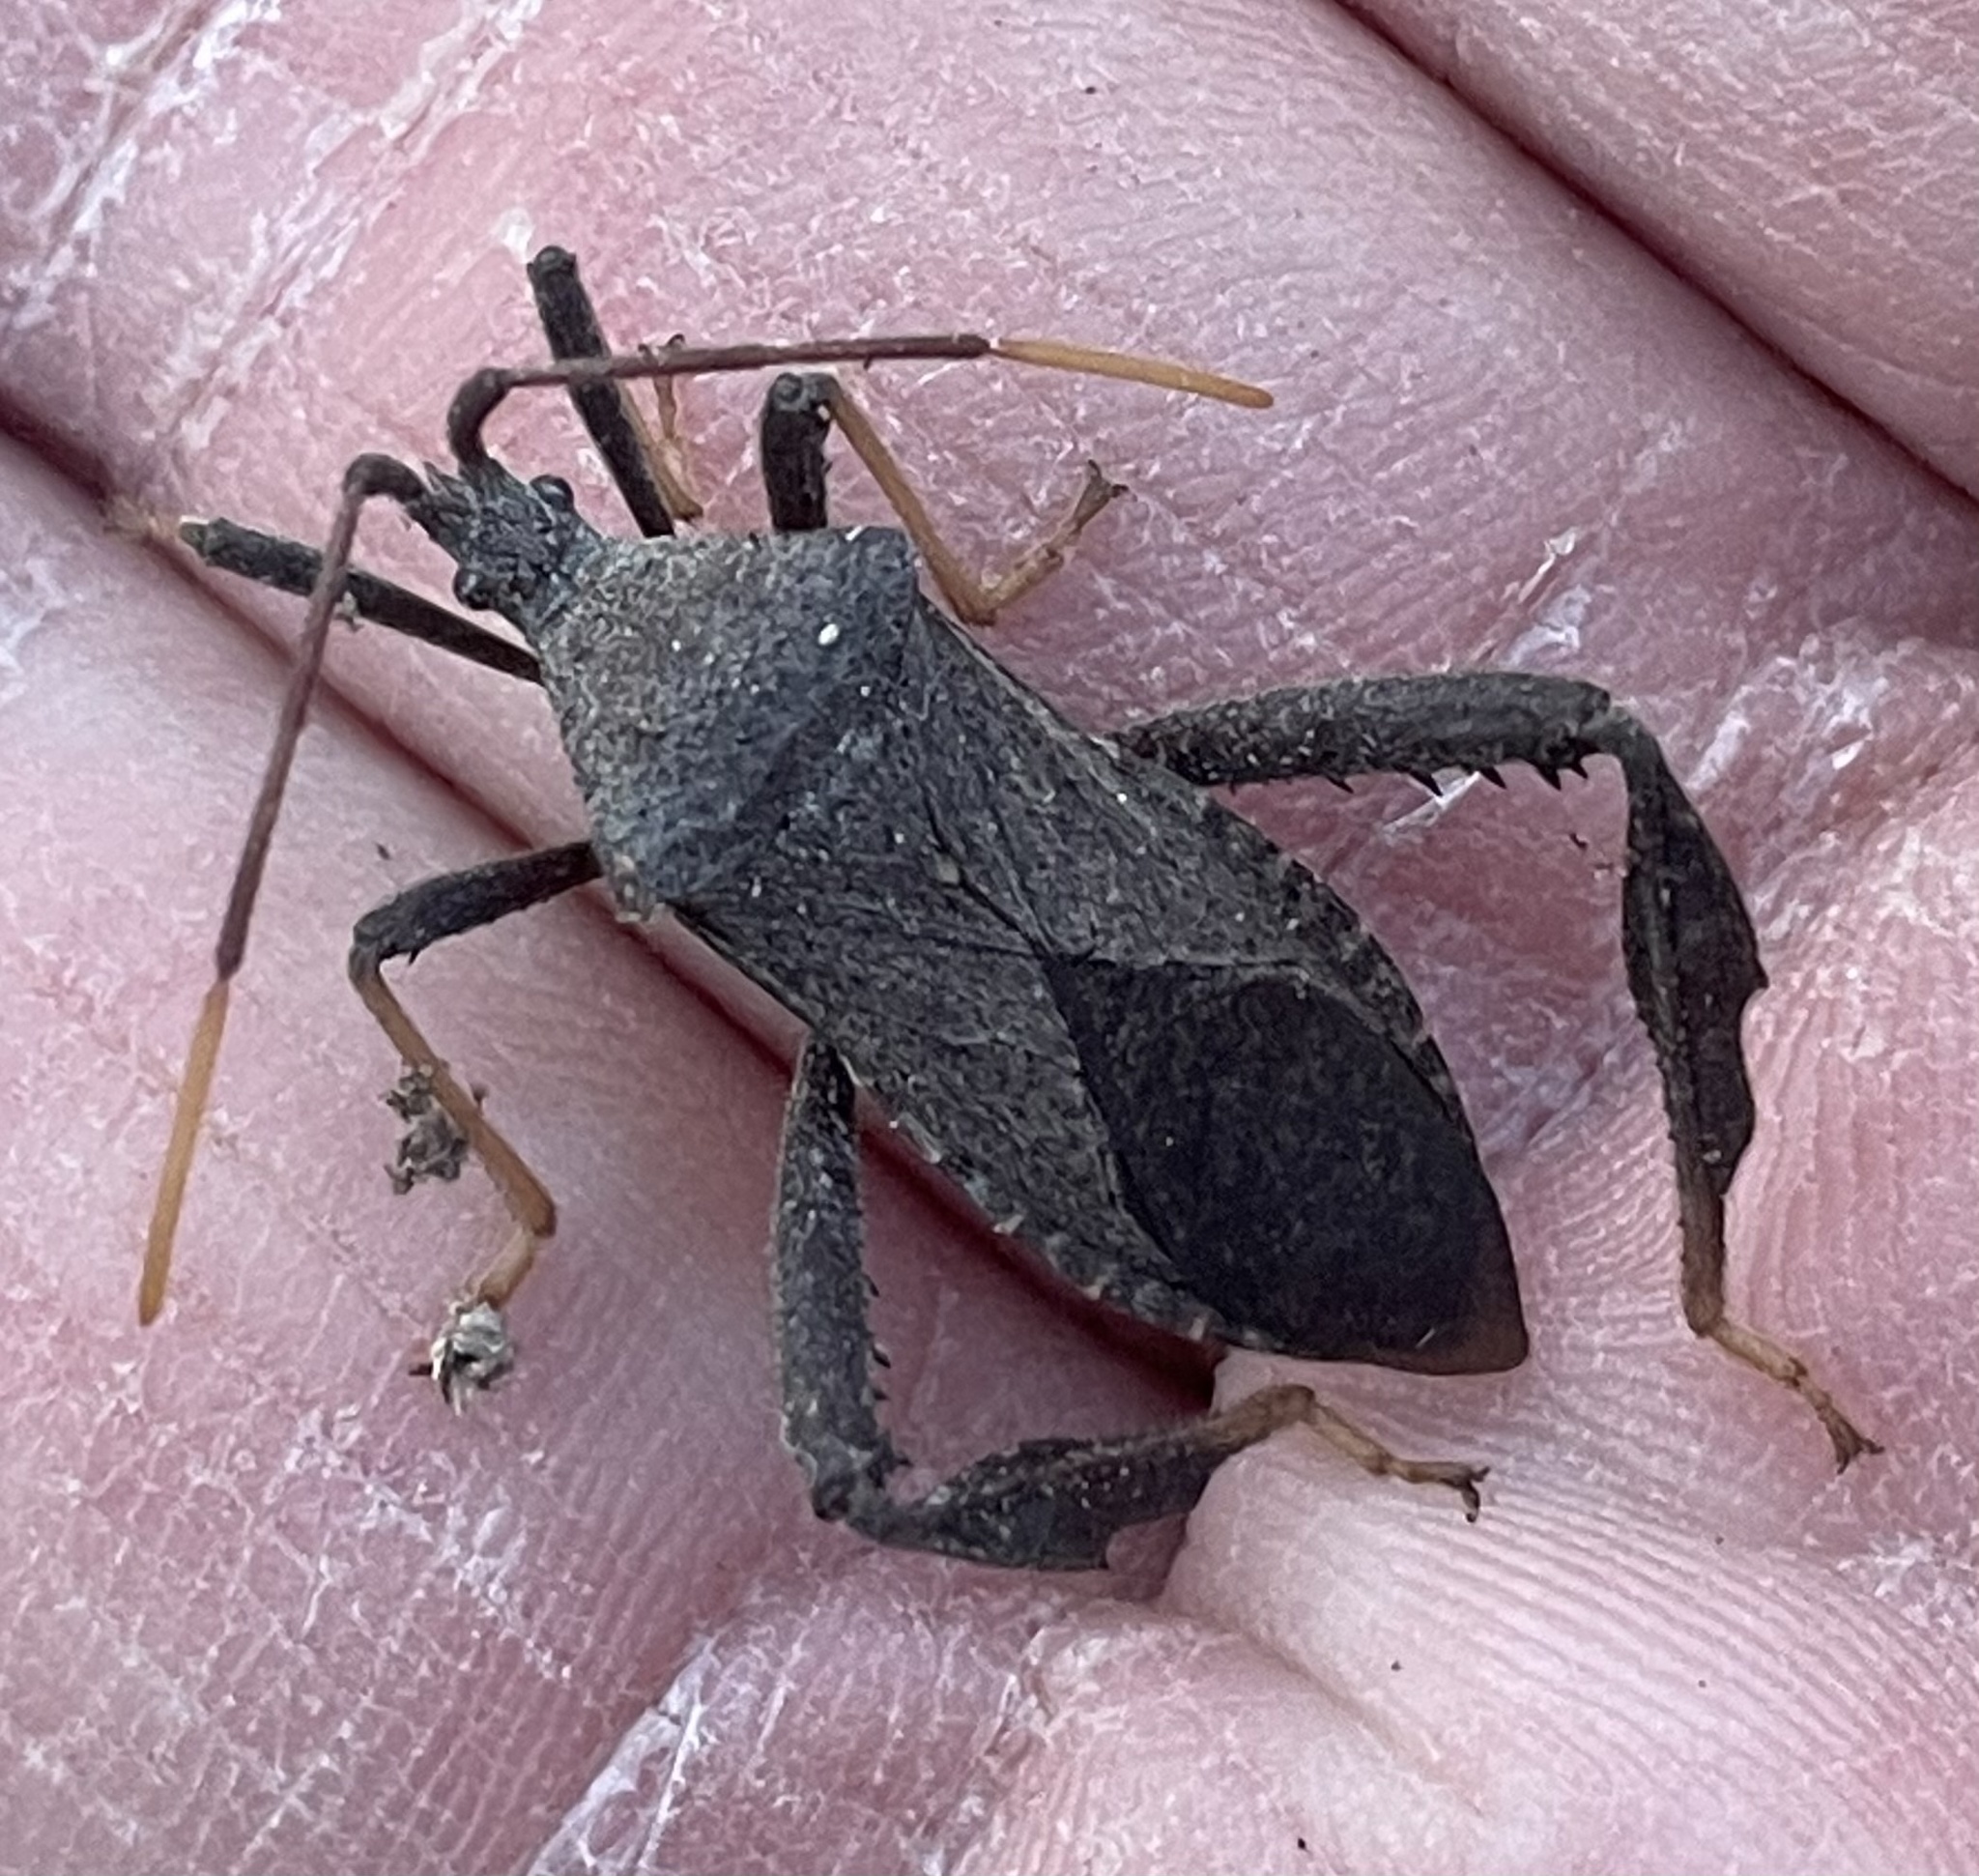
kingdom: Animalia
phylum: Arthropoda
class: Insecta
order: Hemiptera
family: Coreidae
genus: Acanthocephala
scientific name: Acanthocephala terminalis
